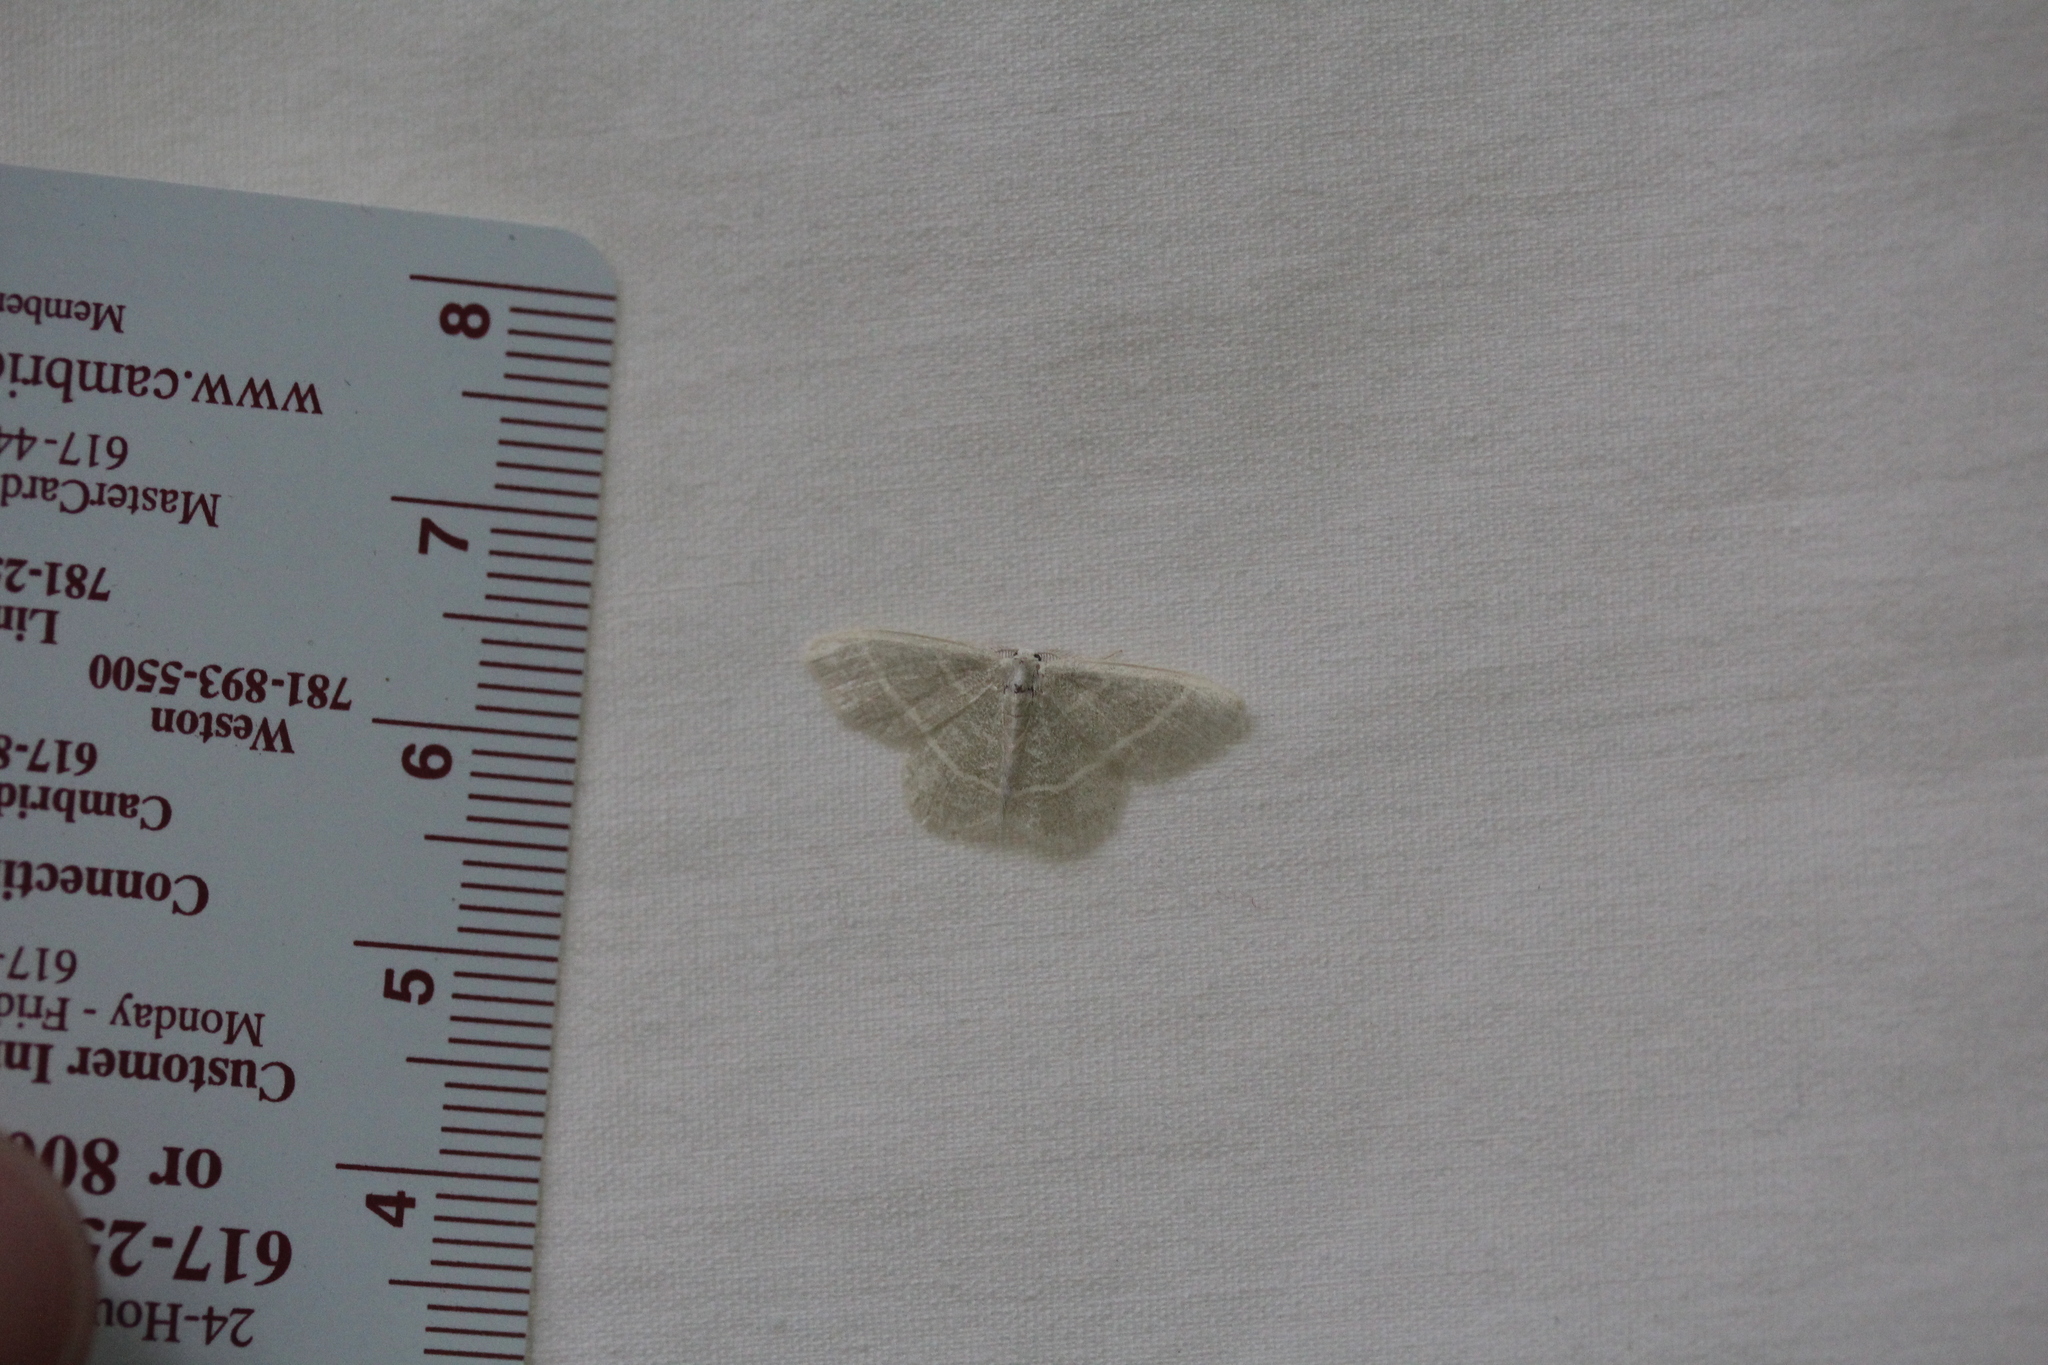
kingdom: Animalia
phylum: Arthropoda
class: Insecta
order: Lepidoptera
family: Geometridae
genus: Chlorochlamys
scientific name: Chlorochlamys chloroleucaria
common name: Blackberry looper
